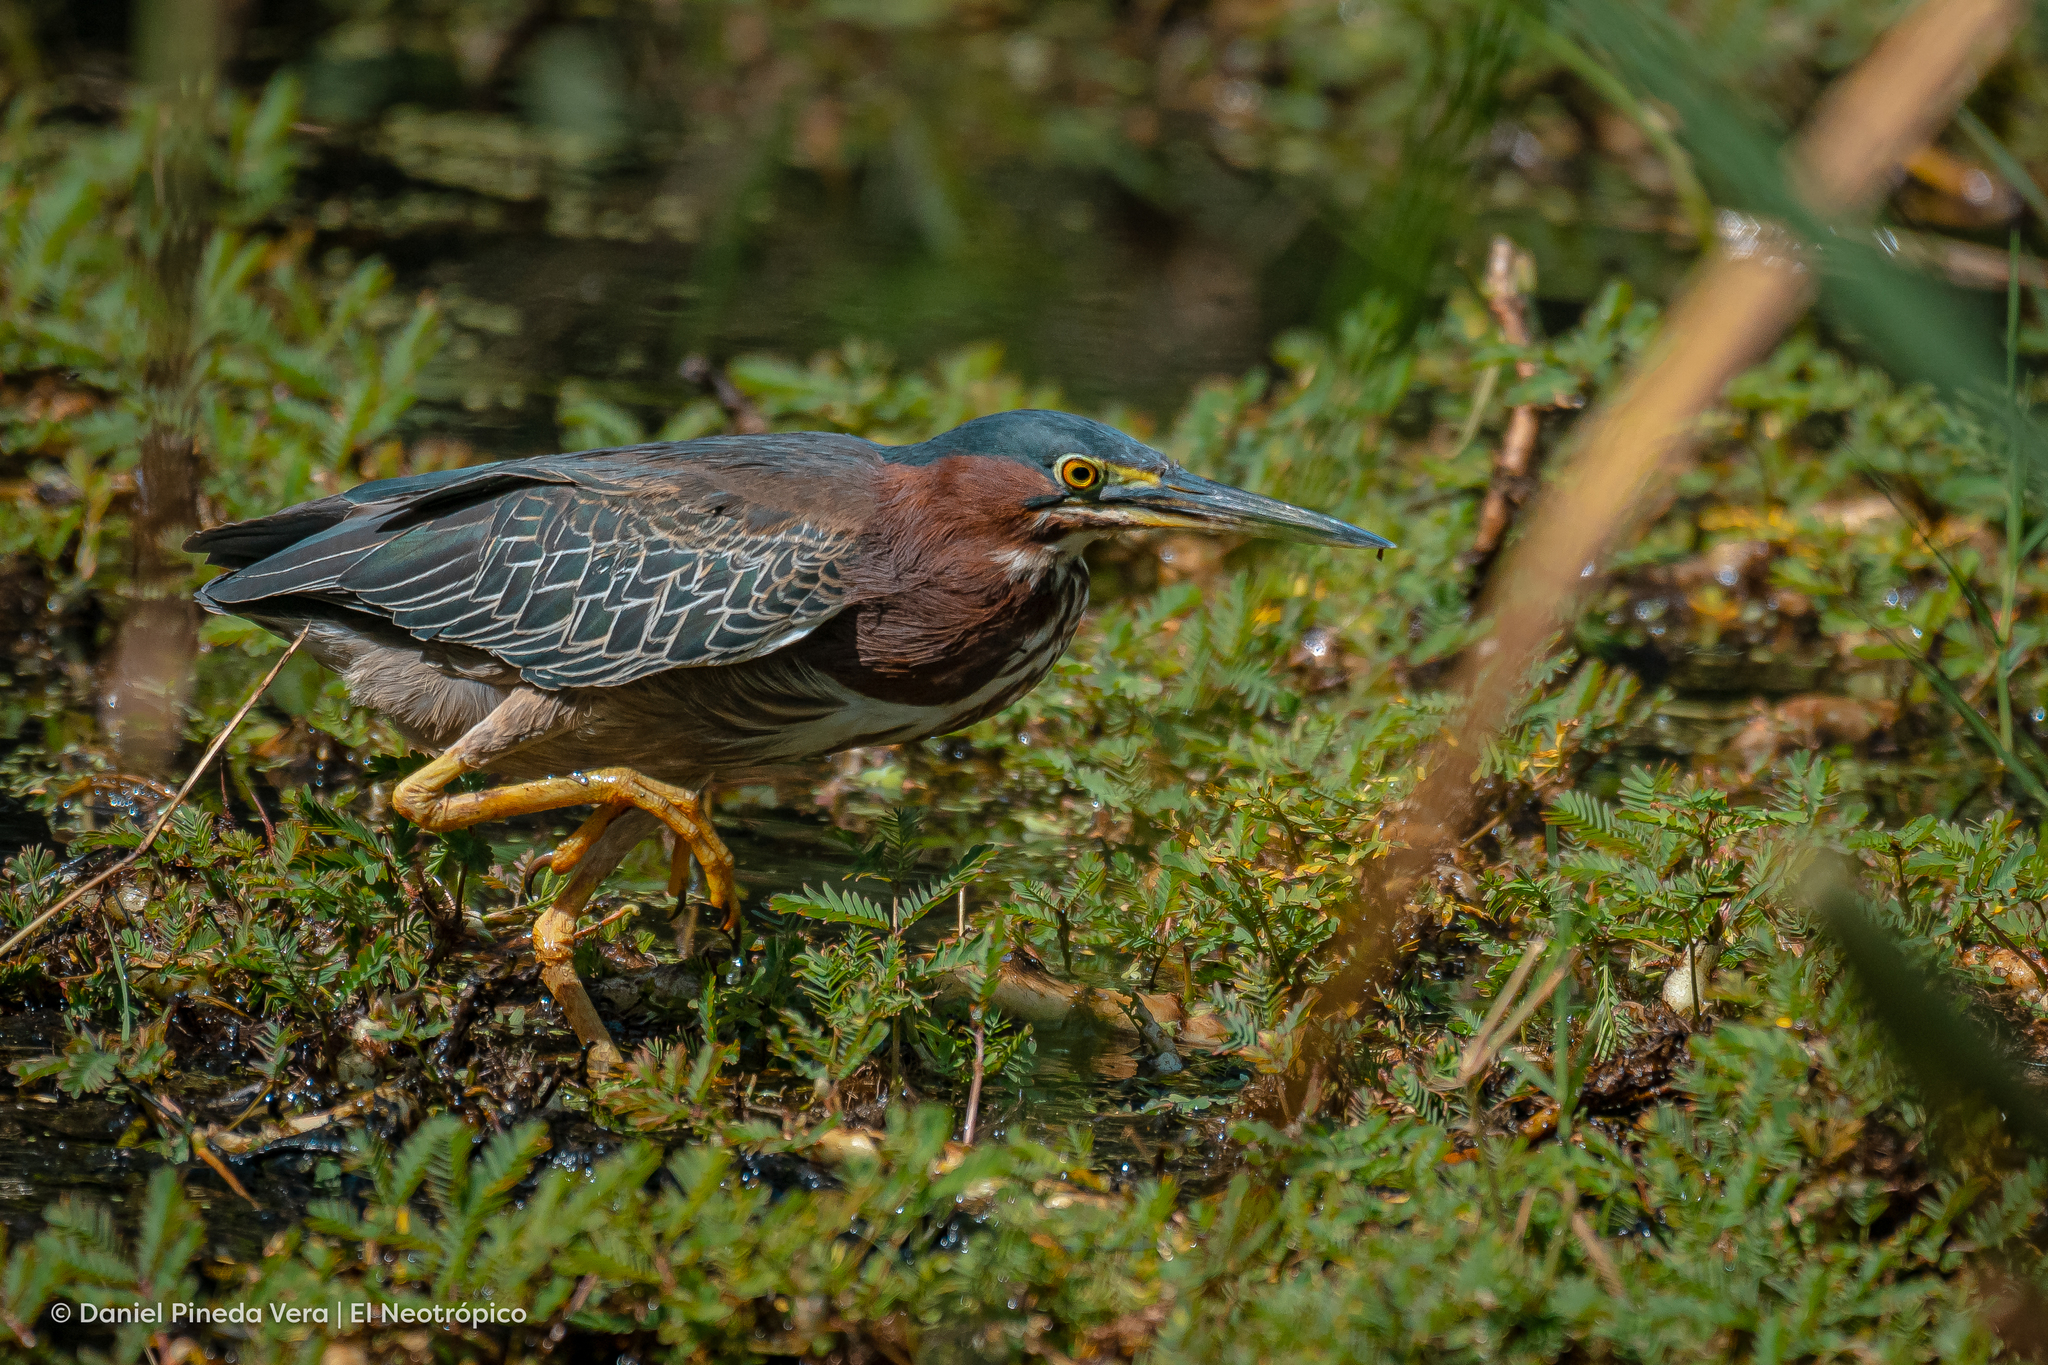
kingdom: Animalia
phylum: Chordata
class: Aves
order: Pelecaniformes
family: Ardeidae
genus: Butorides
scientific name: Butorides virescens
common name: Green heron
